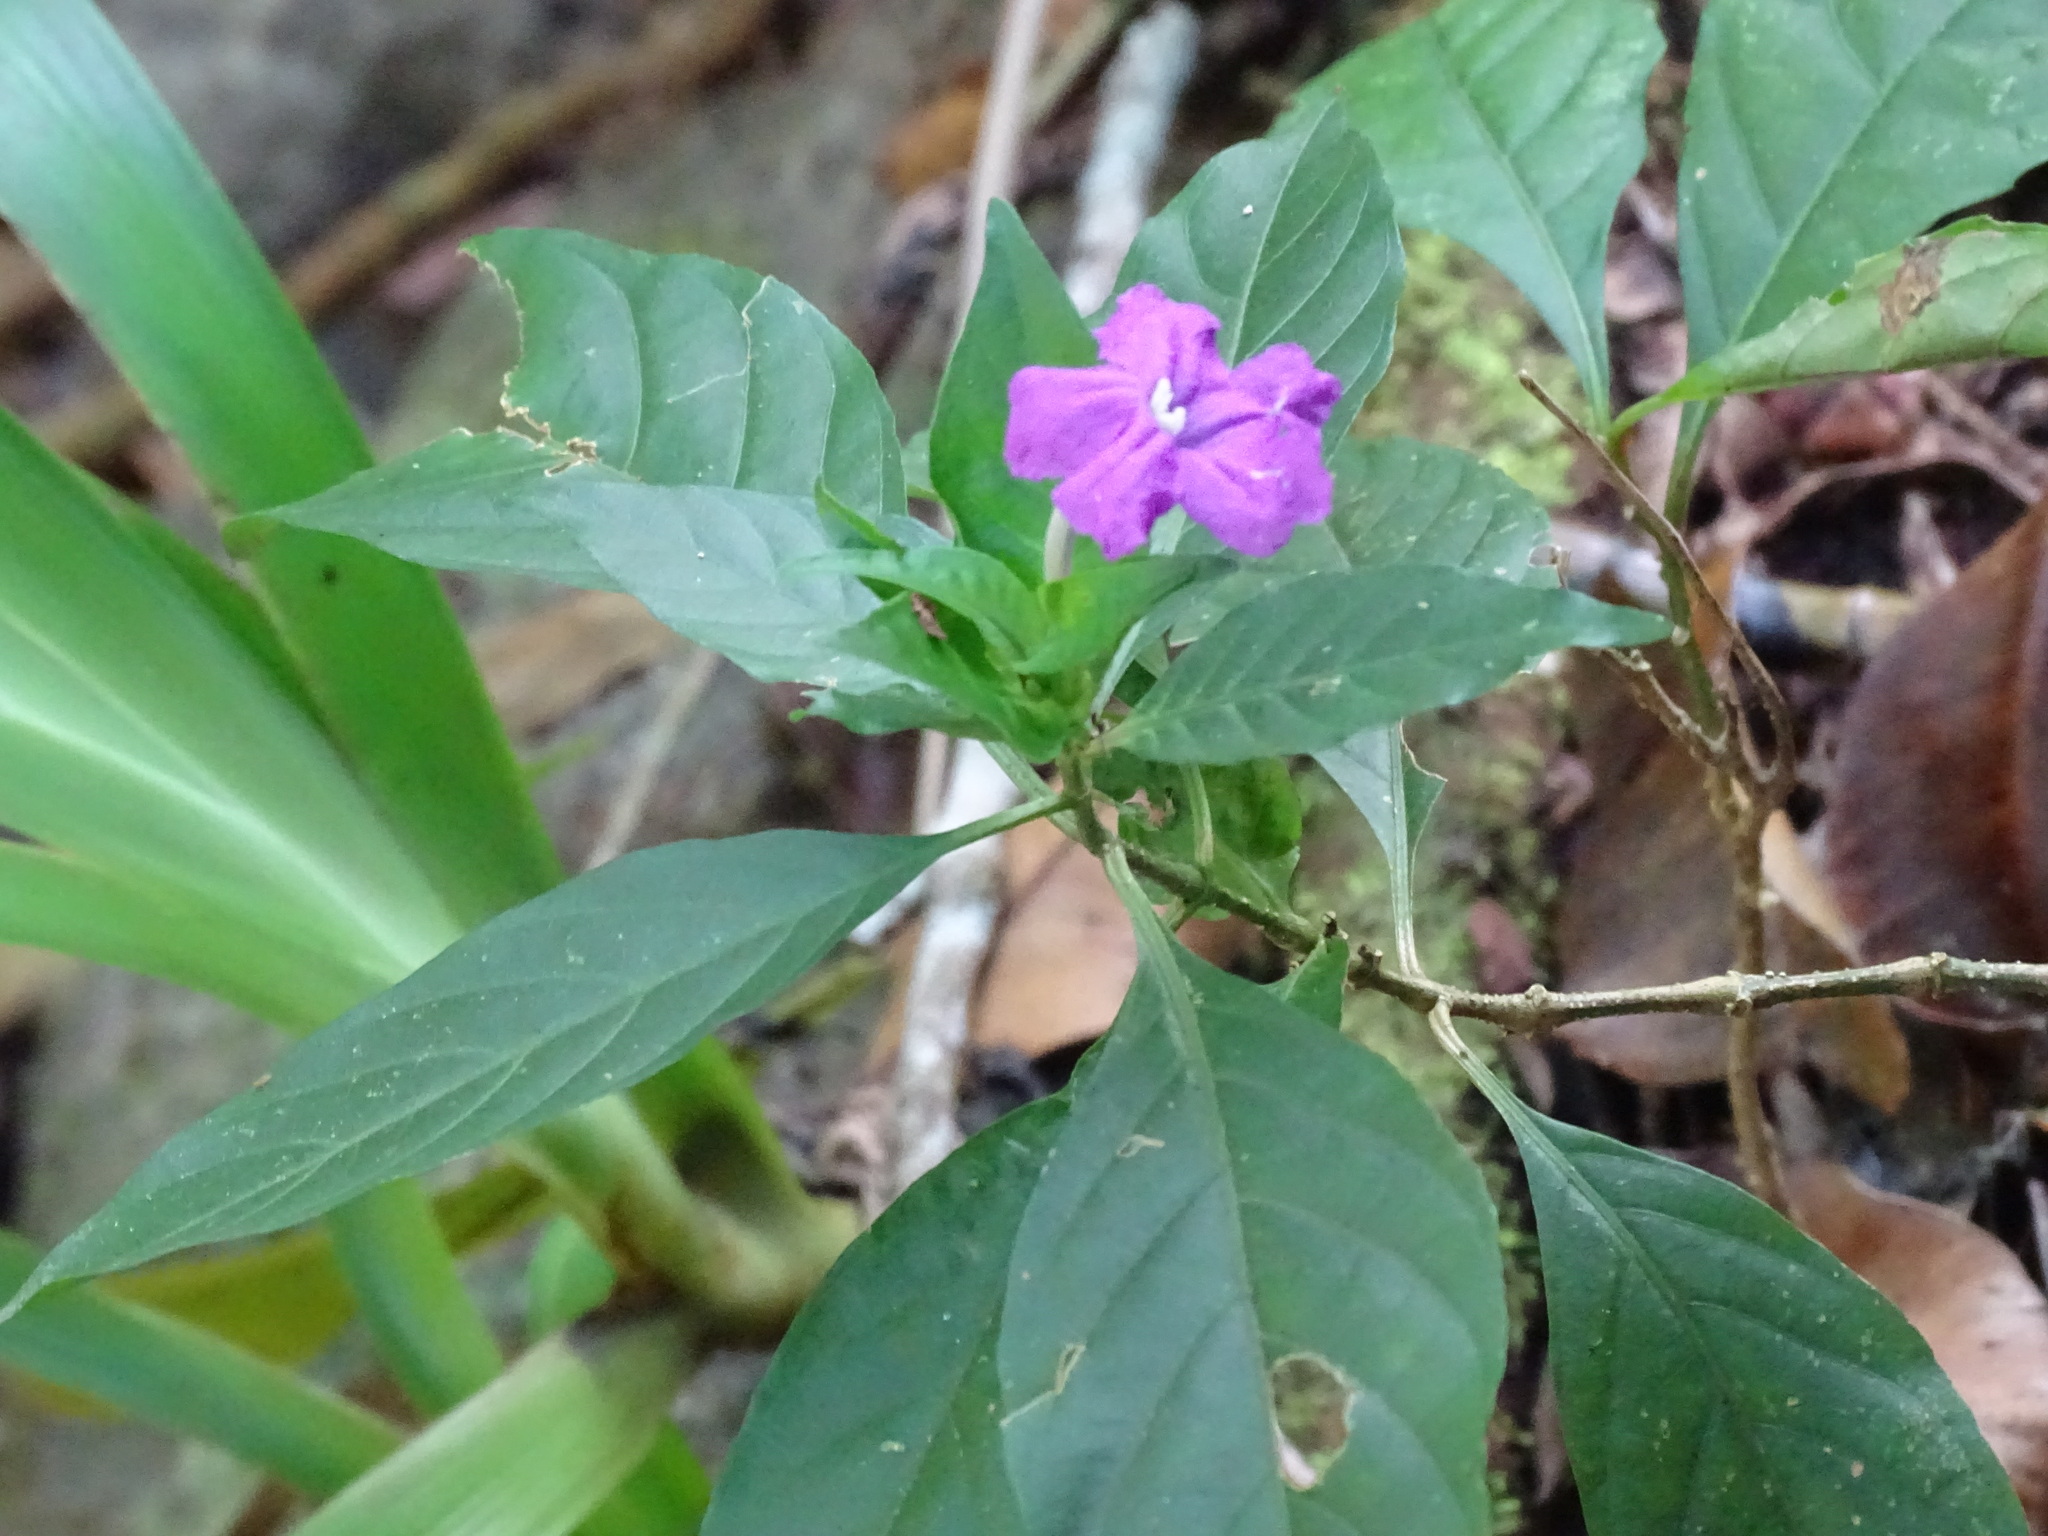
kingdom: Plantae
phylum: Tracheophyta
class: Magnoliopsida
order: Lamiales
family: Acanthaceae
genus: Ruellia
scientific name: Ruellia matagalpae
